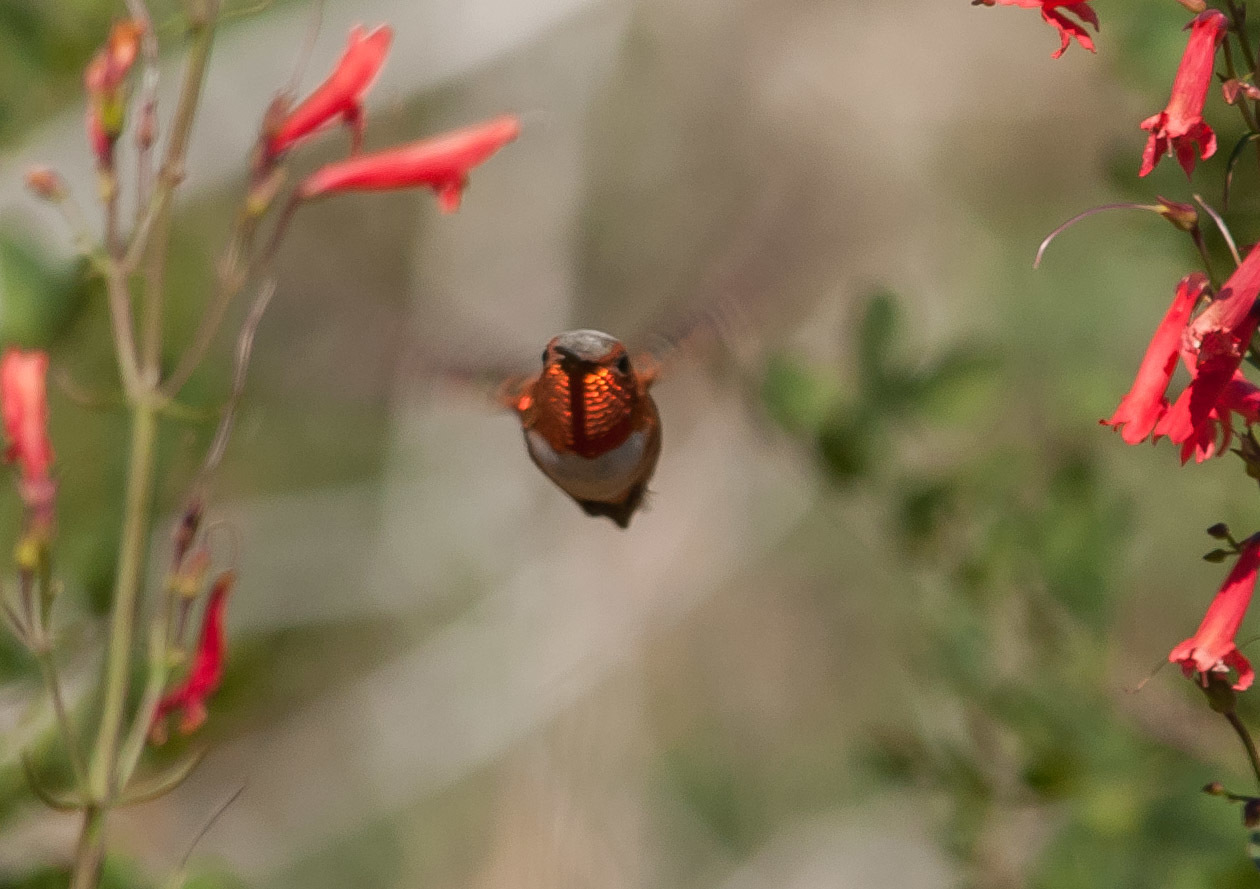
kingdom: Animalia
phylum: Chordata
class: Aves
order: Apodiformes
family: Trochilidae
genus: Selasphorus
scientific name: Selasphorus rufus
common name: Rufous hummingbird
